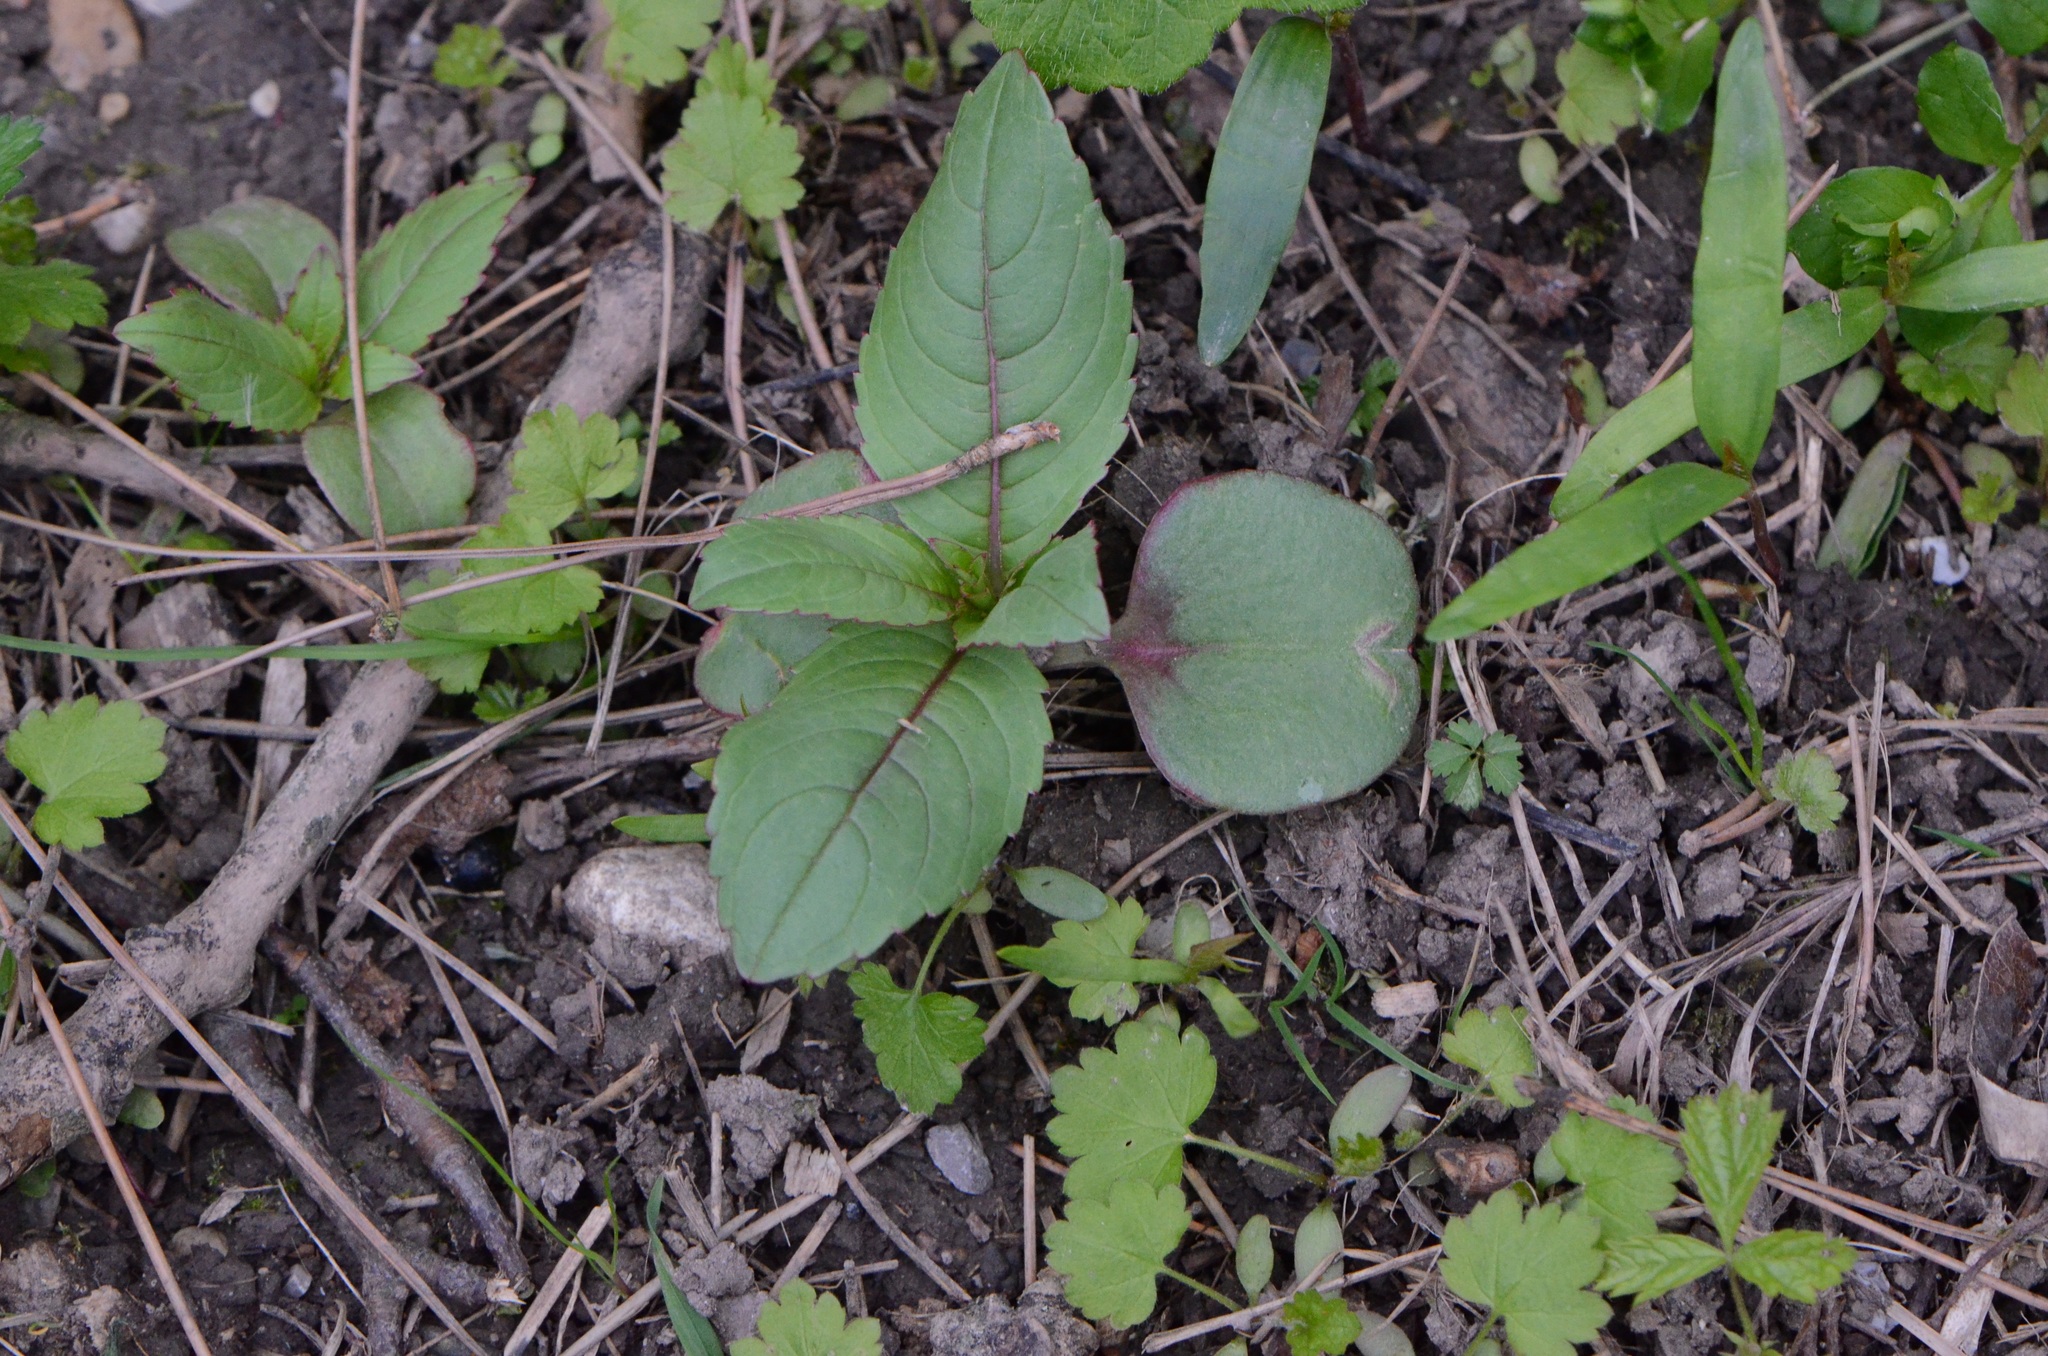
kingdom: Plantae
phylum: Tracheophyta
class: Magnoliopsida
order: Ericales
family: Balsaminaceae
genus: Impatiens
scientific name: Impatiens glandulifera
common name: Himalayan balsam
